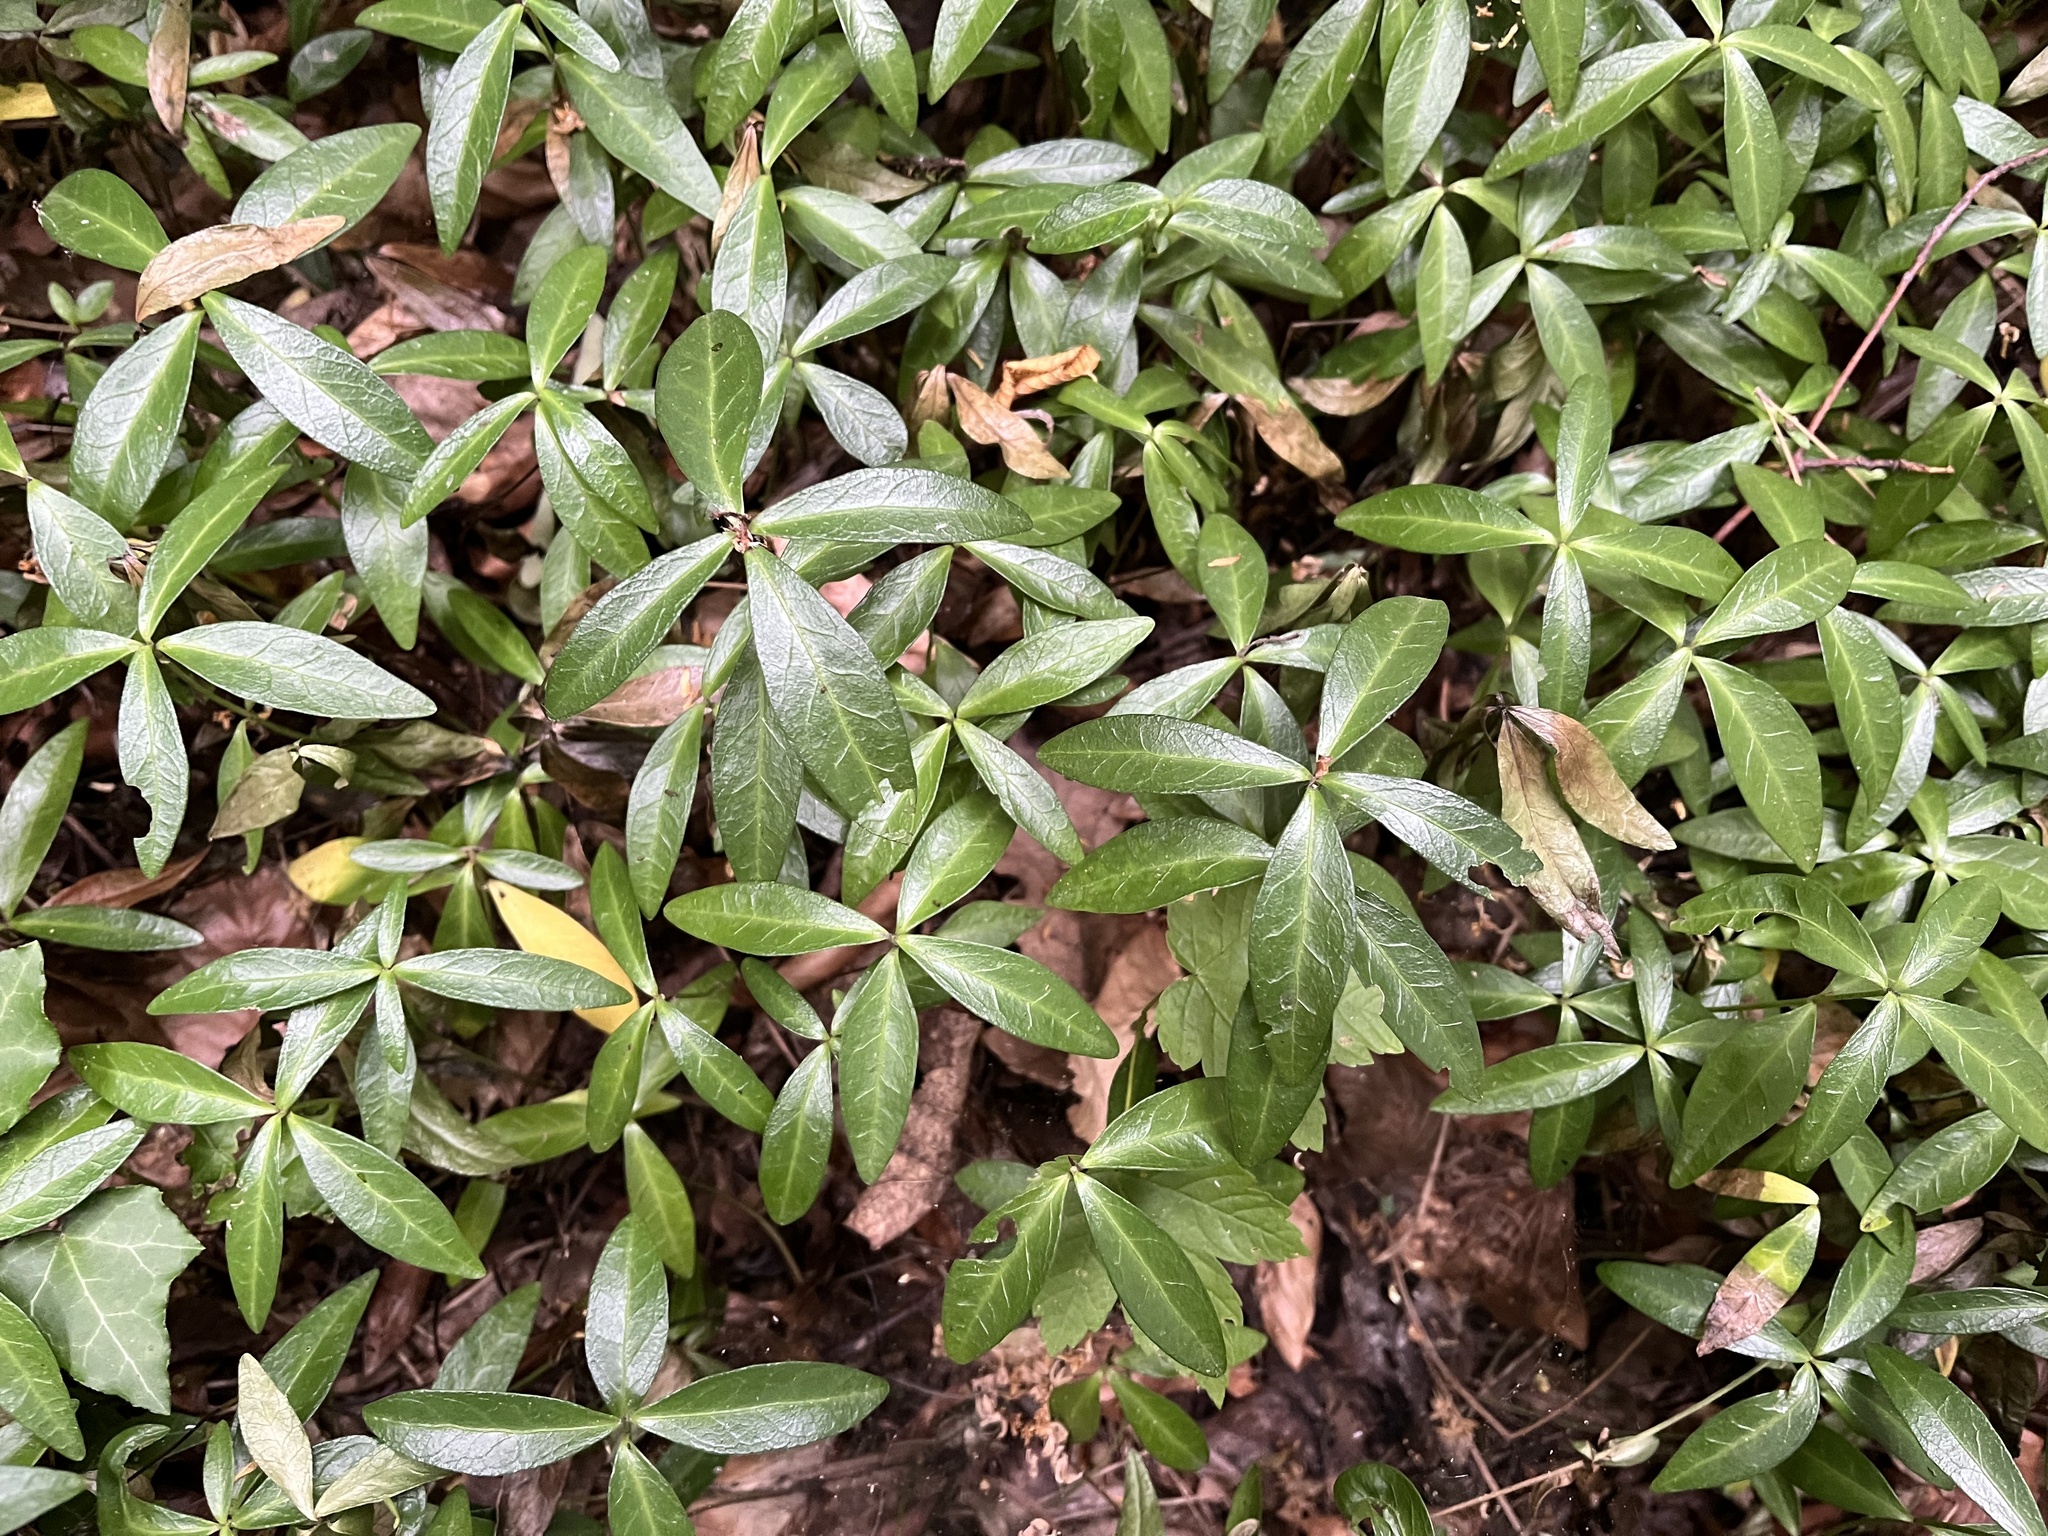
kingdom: Plantae
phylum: Tracheophyta
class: Magnoliopsida
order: Gentianales
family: Apocynaceae
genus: Vinca
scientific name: Vinca minor
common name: Lesser periwinkle
